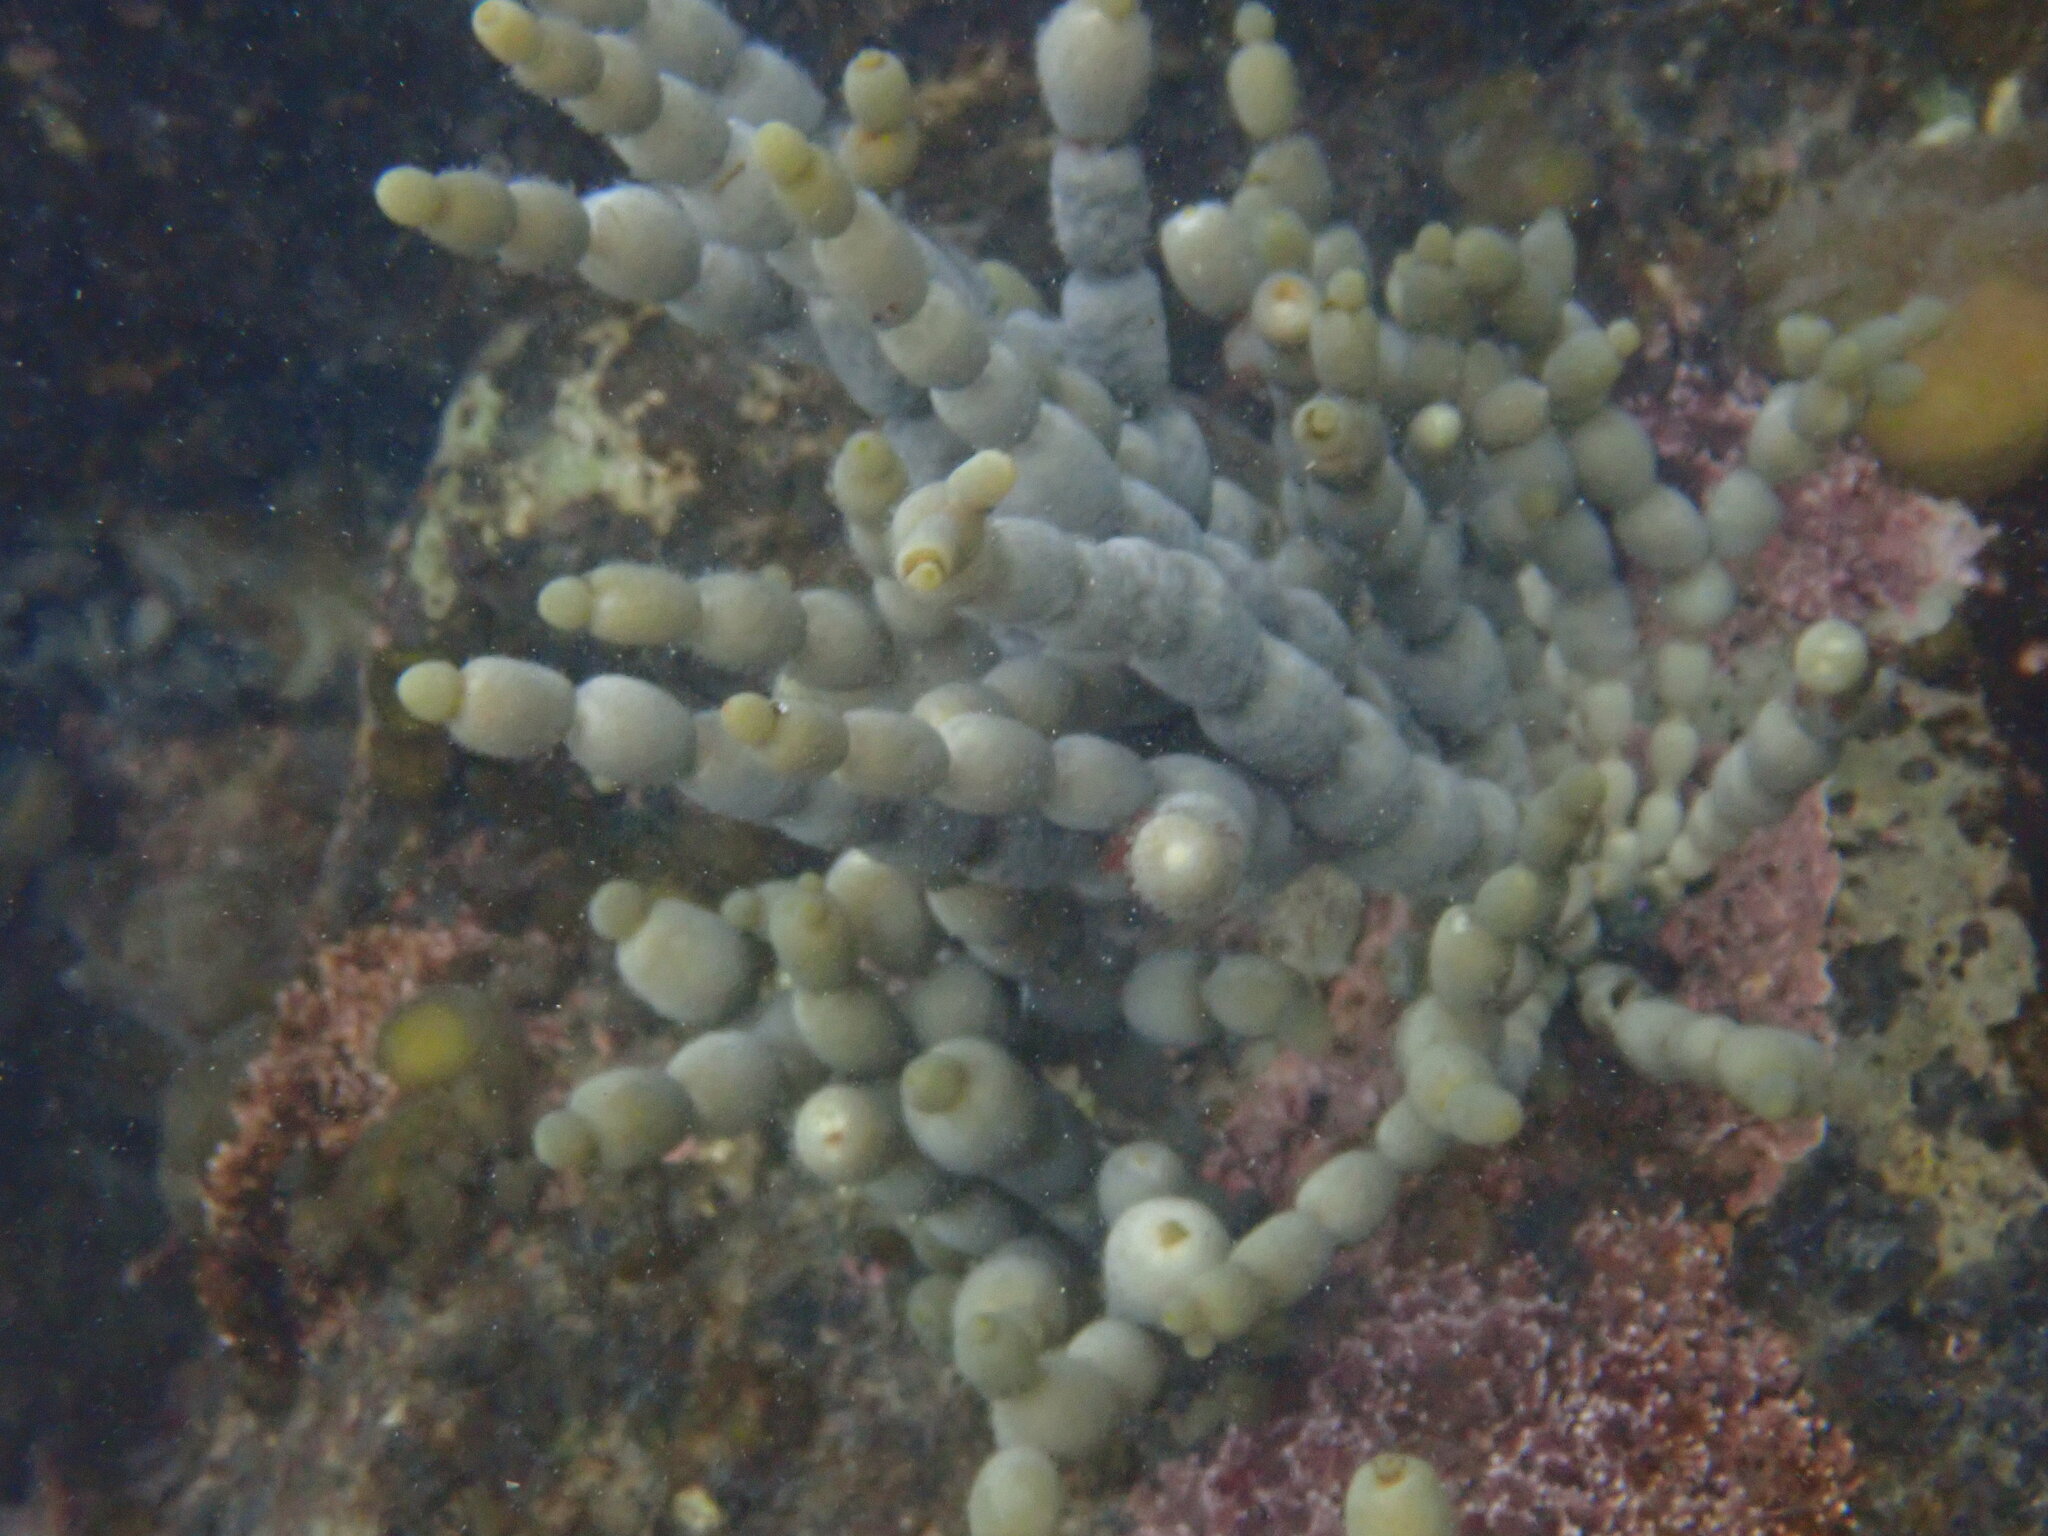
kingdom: Chromista
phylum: Ochrophyta
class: Phaeophyceae
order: Fucales
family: Hormosiraceae
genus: Hormosira
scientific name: Hormosira banksii
